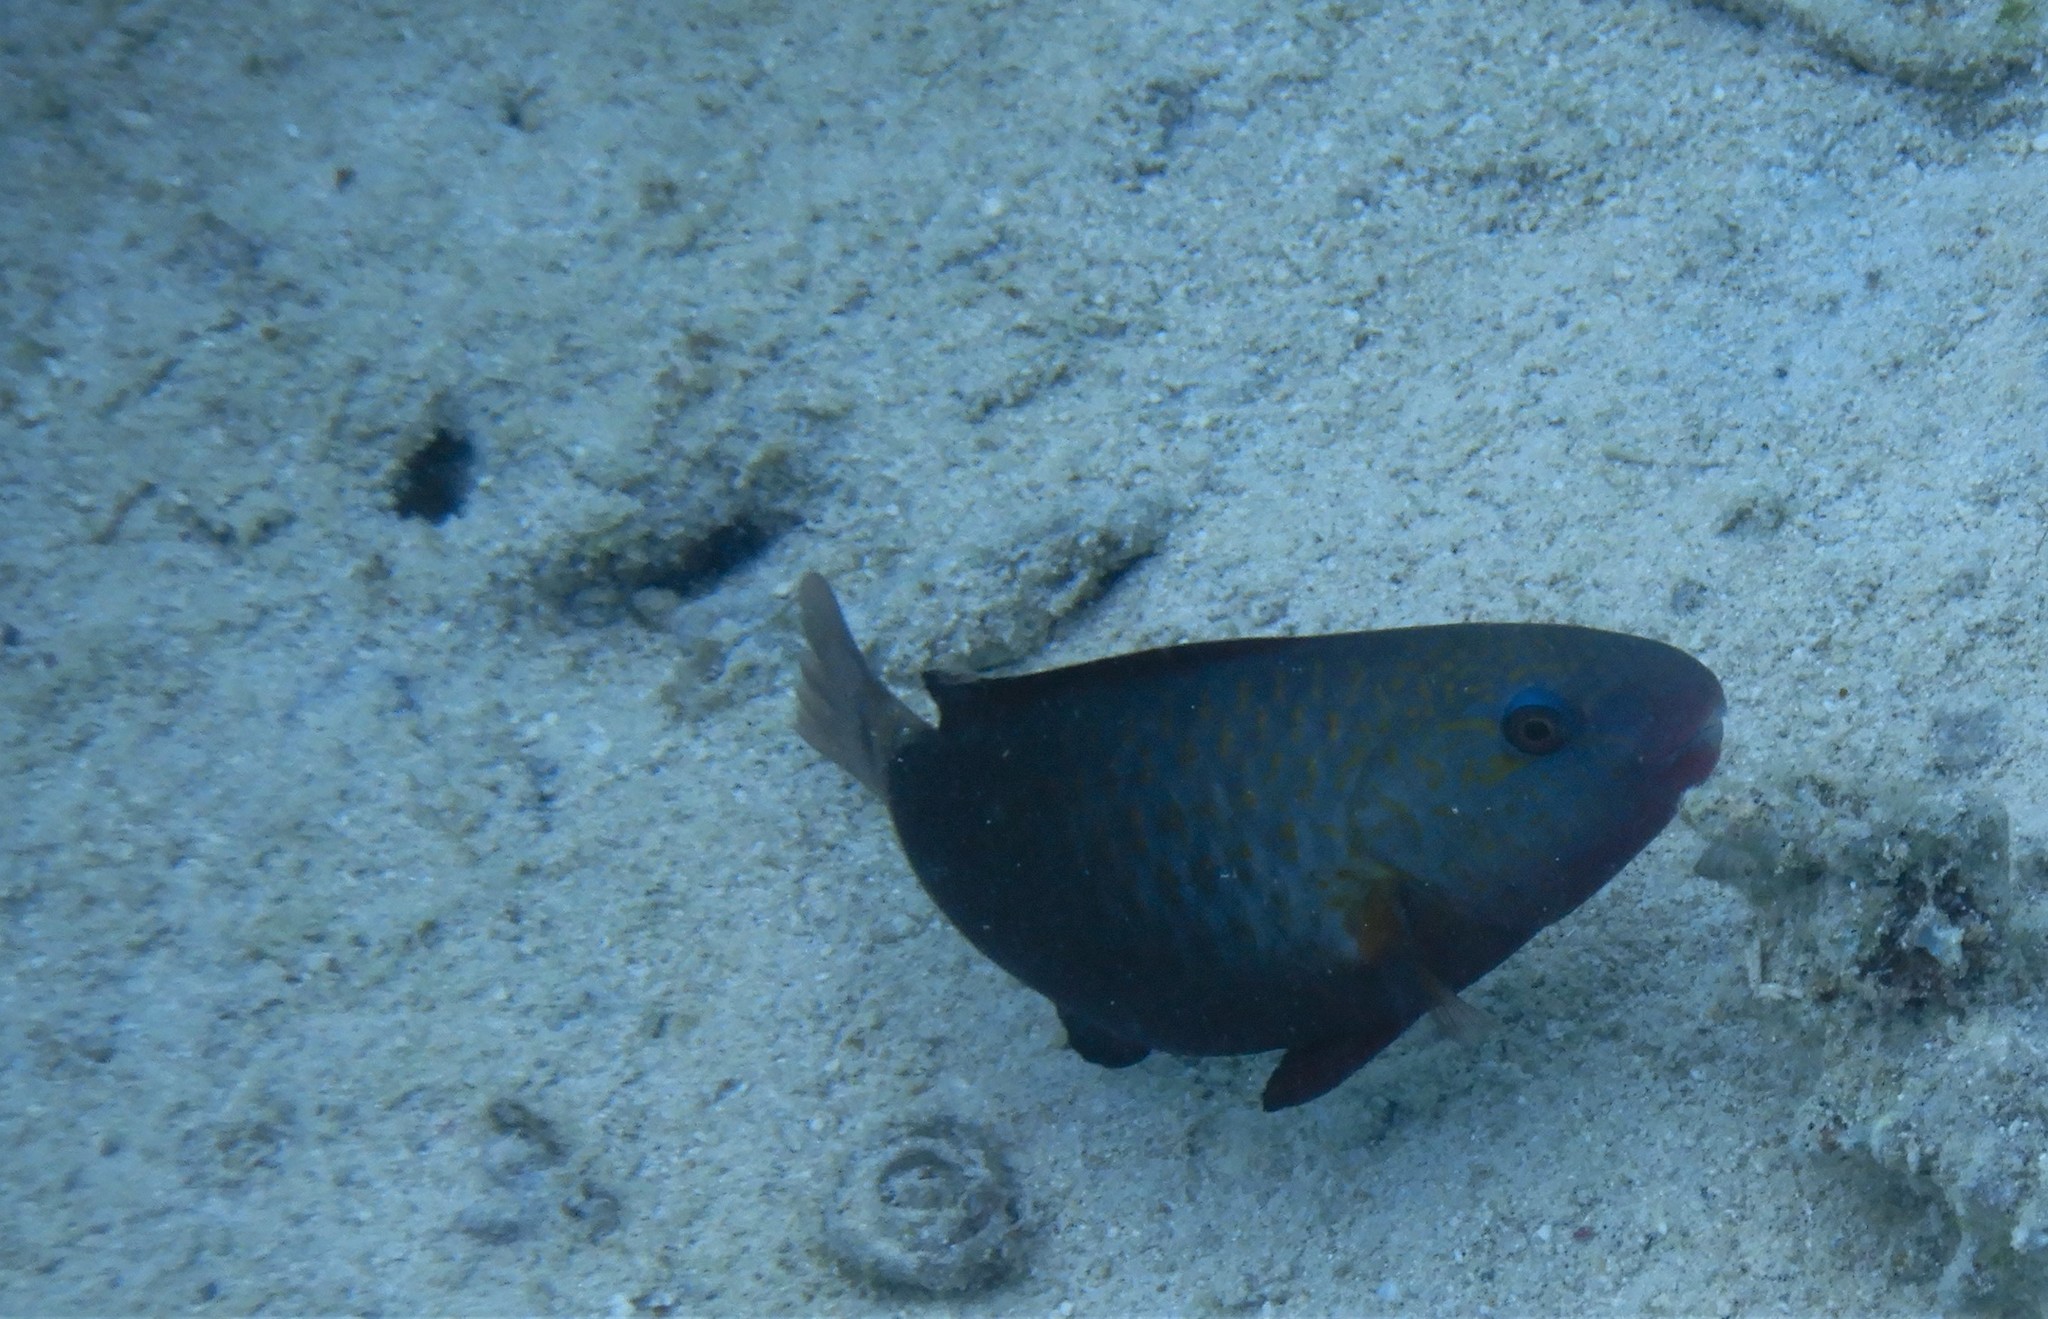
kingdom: Animalia
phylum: Chordata
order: Perciformes
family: Scaridae
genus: Chlorurus
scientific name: Chlorurus spilurus
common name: Bullethead parrotfish
